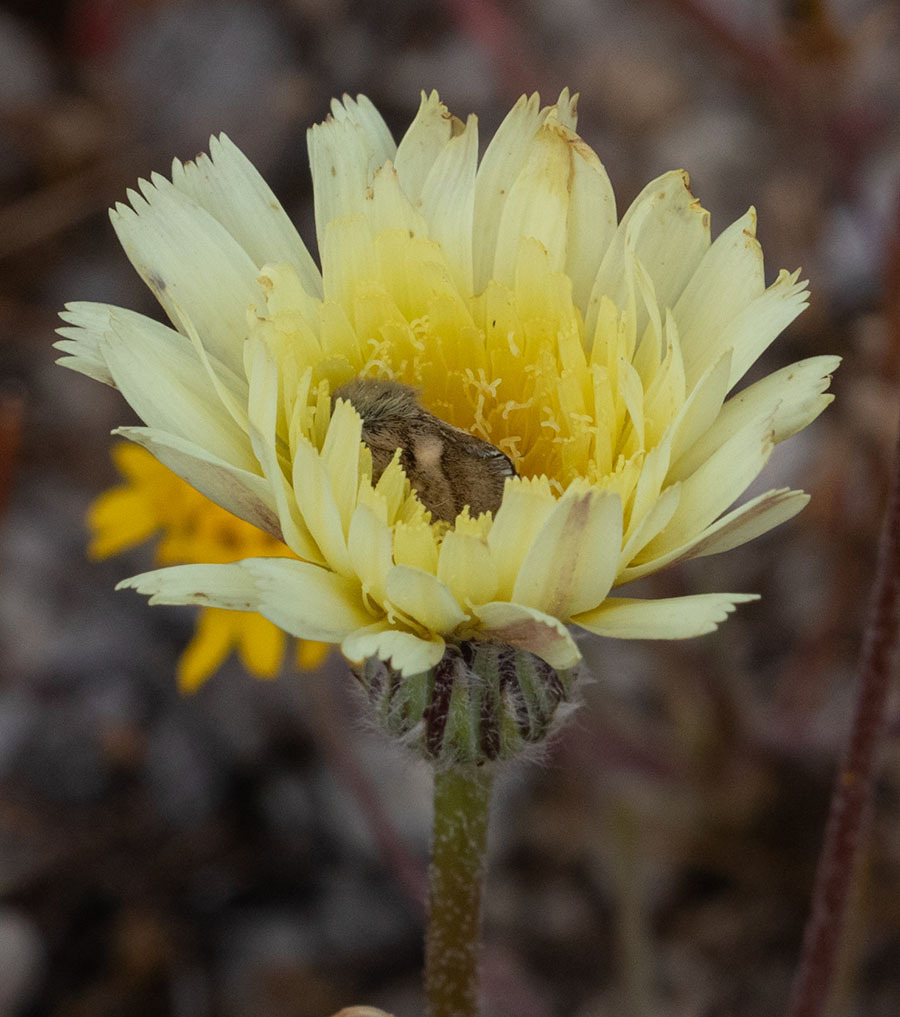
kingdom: Plantae
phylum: Tracheophyta
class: Magnoliopsida
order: Asterales
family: Asteraceae
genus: Malacothrix
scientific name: Malacothrix californica
